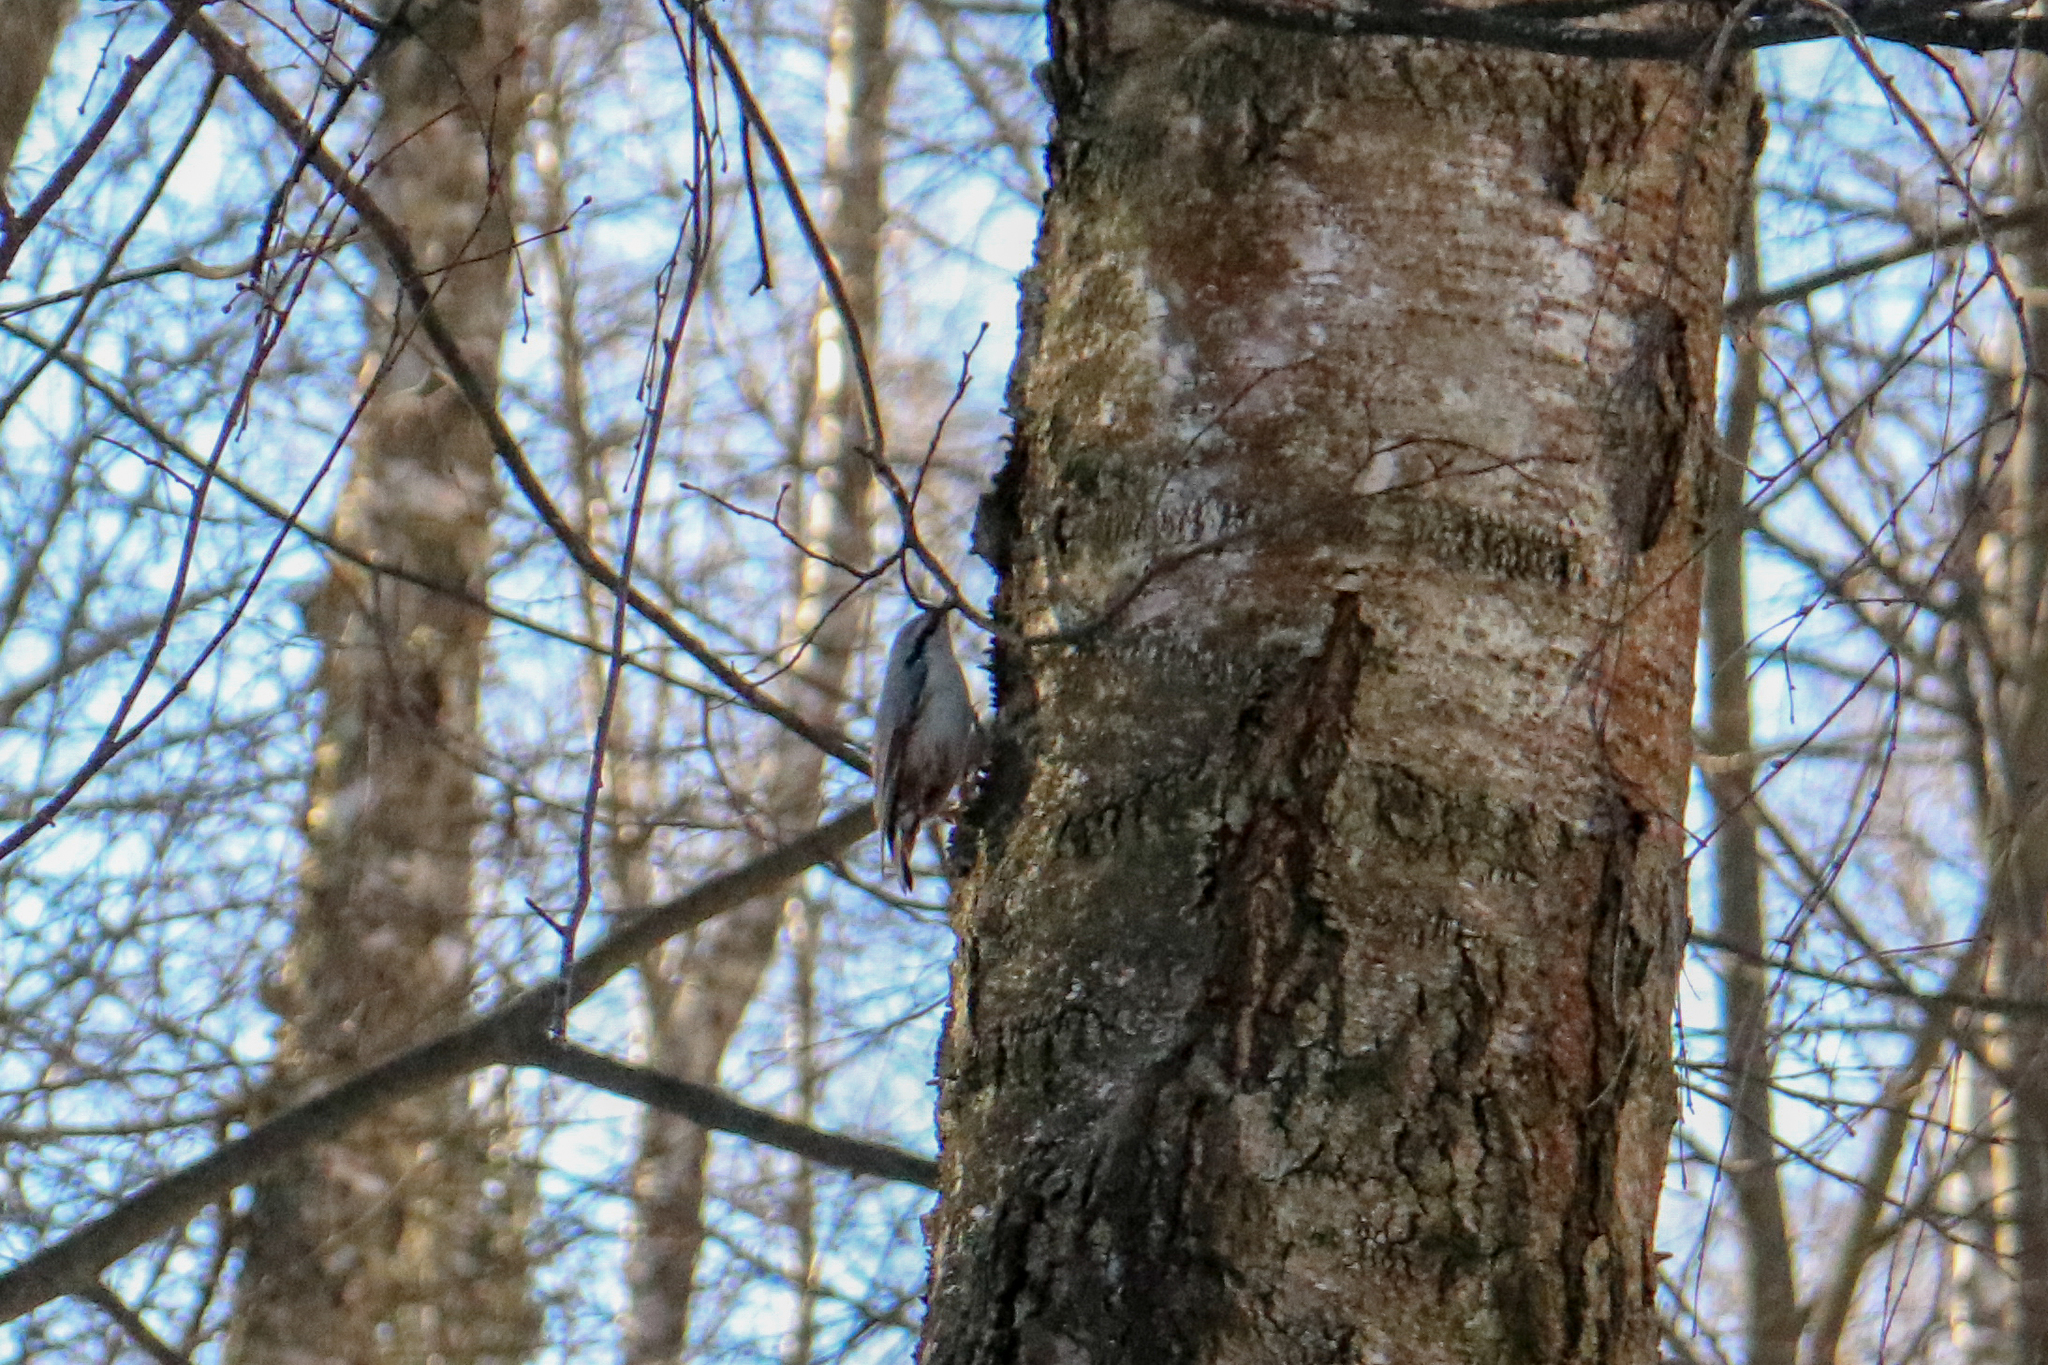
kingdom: Animalia
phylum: Chordata
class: Aves
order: Passeriformes
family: Sittidae
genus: Sitta
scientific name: Sitta europaea
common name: Eurasian nuthatch
